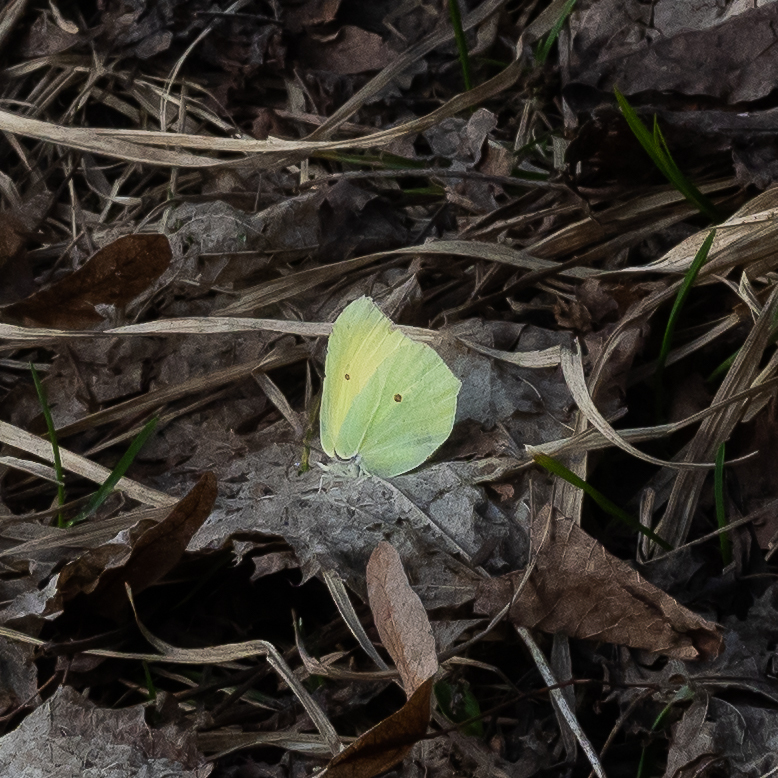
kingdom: Animalia
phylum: Arthropoda
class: Insecta
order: Lepidoptera
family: Pieridae
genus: Gonepteryx
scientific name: Gonepteryx rhamni
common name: Brimstone
